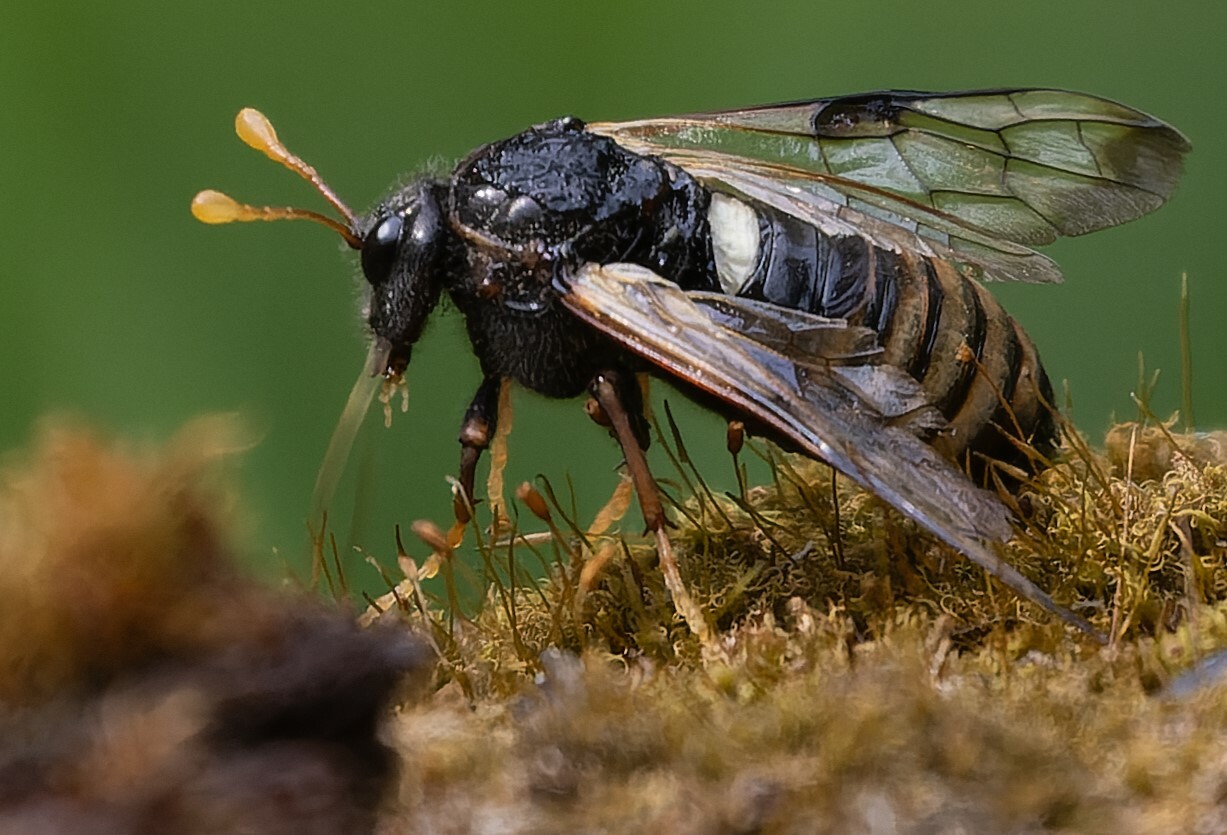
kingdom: Animalia
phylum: Arthropoda
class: Insecta
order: Hymenoptera
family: Cimbicidae
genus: Cimbex
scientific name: Cimbex femoratus
